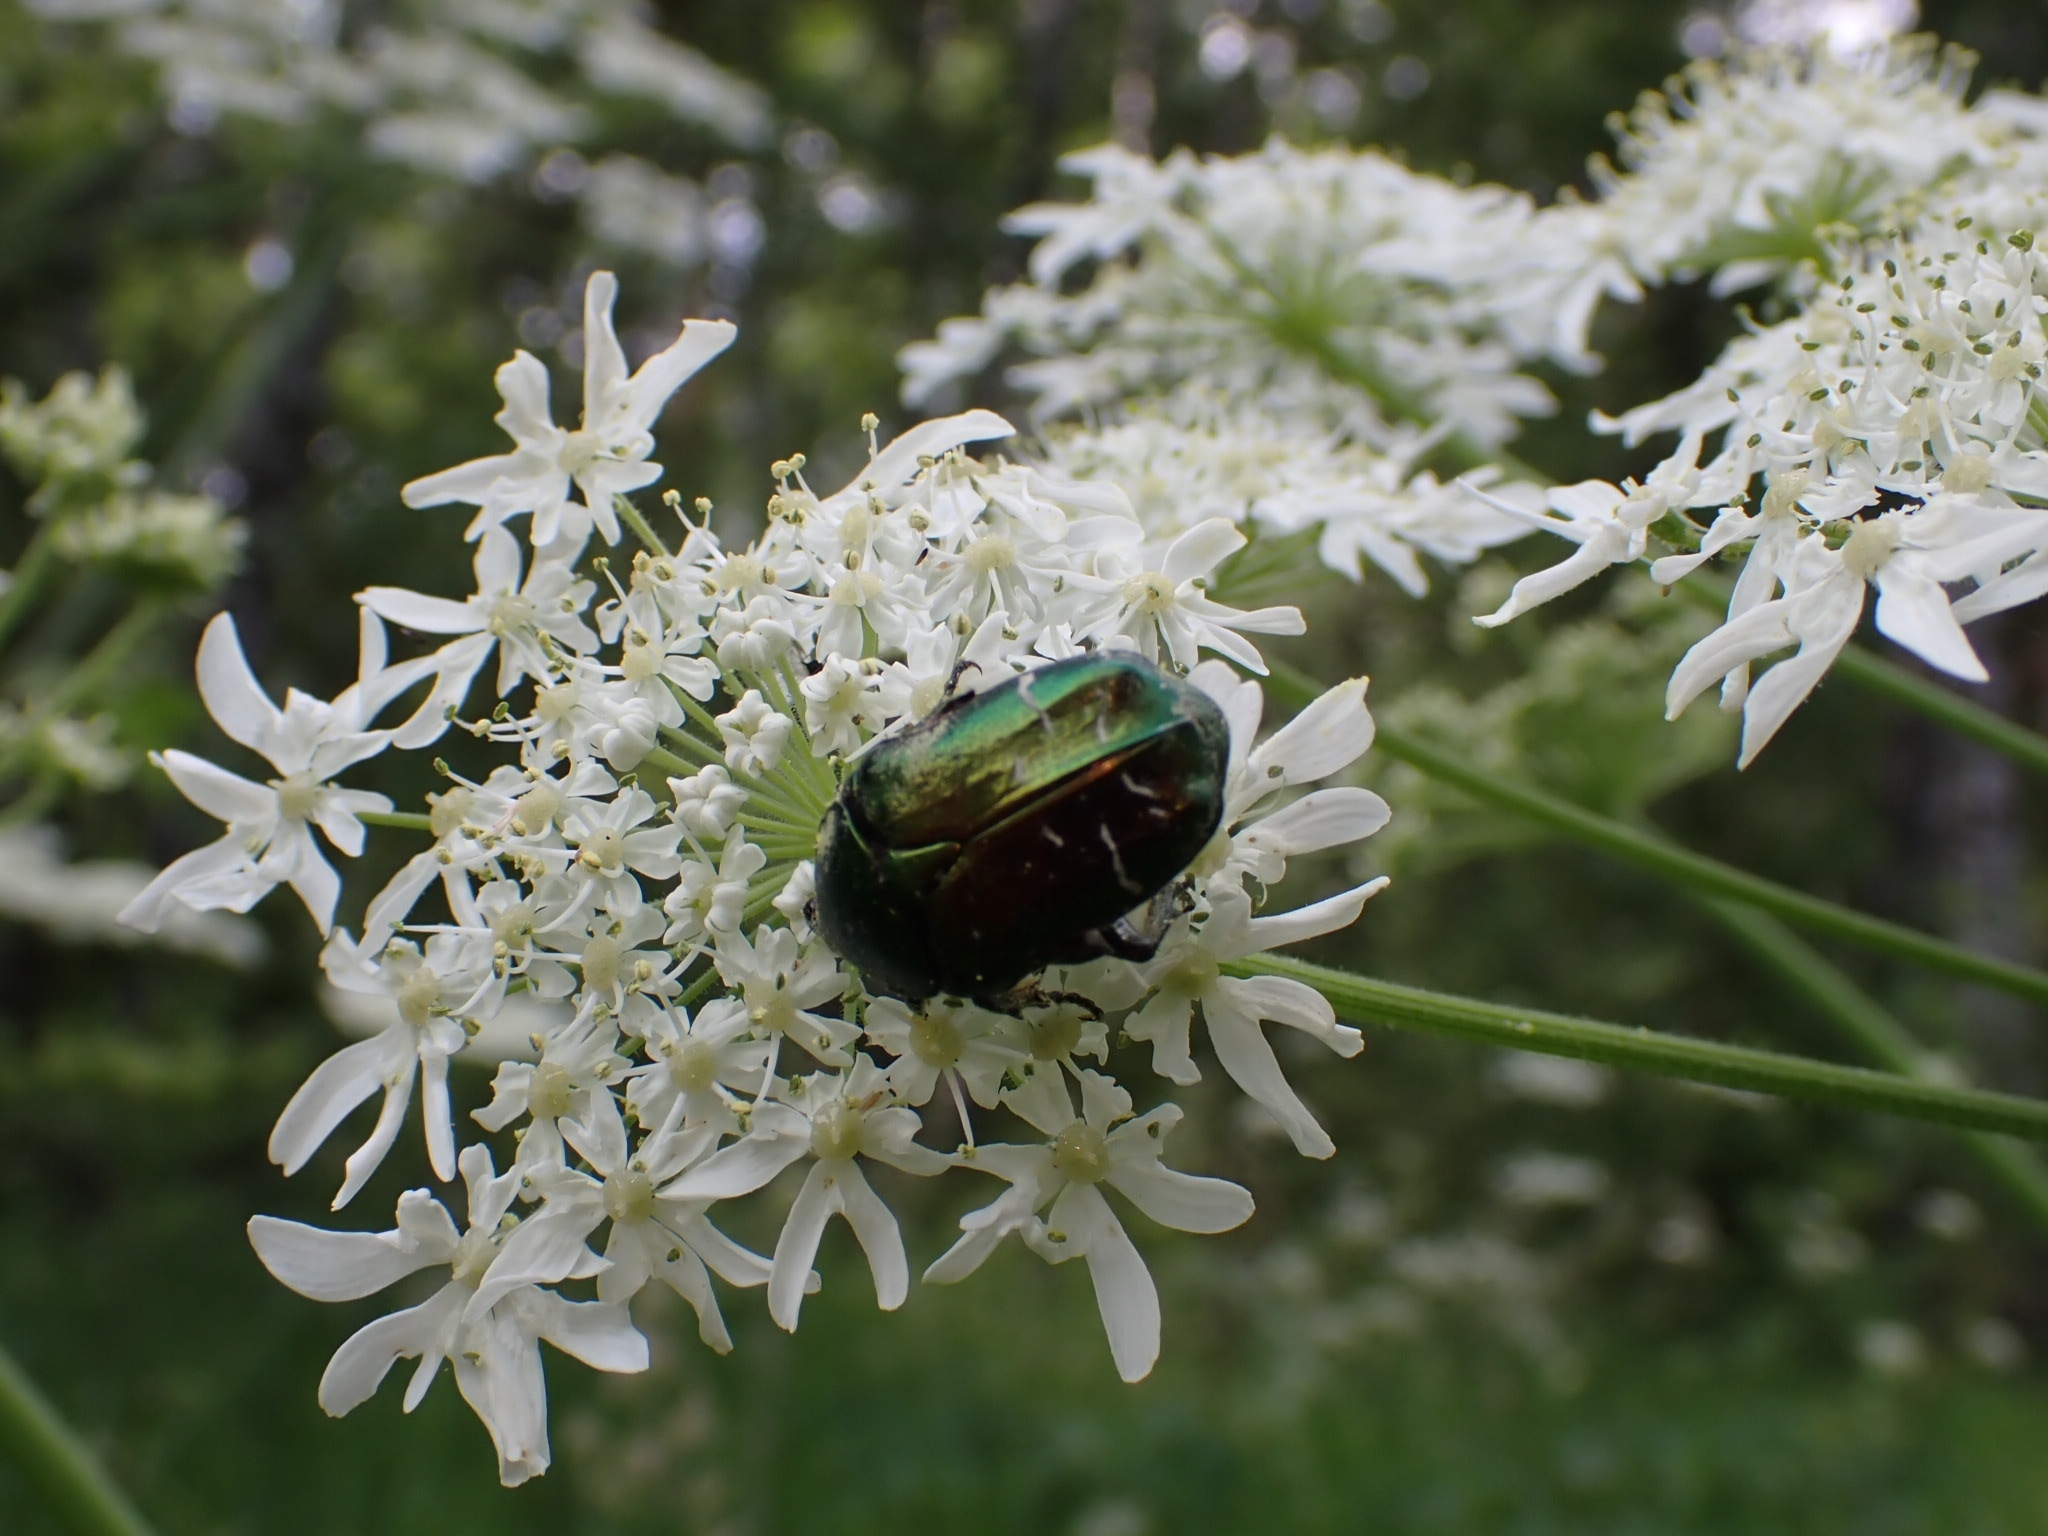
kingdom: Animalia
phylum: Arthropoda
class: Insecta
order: Coleoptera
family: Scarabaeidae
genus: Cetonia
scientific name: Cetonia aurata
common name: Rose chafer
